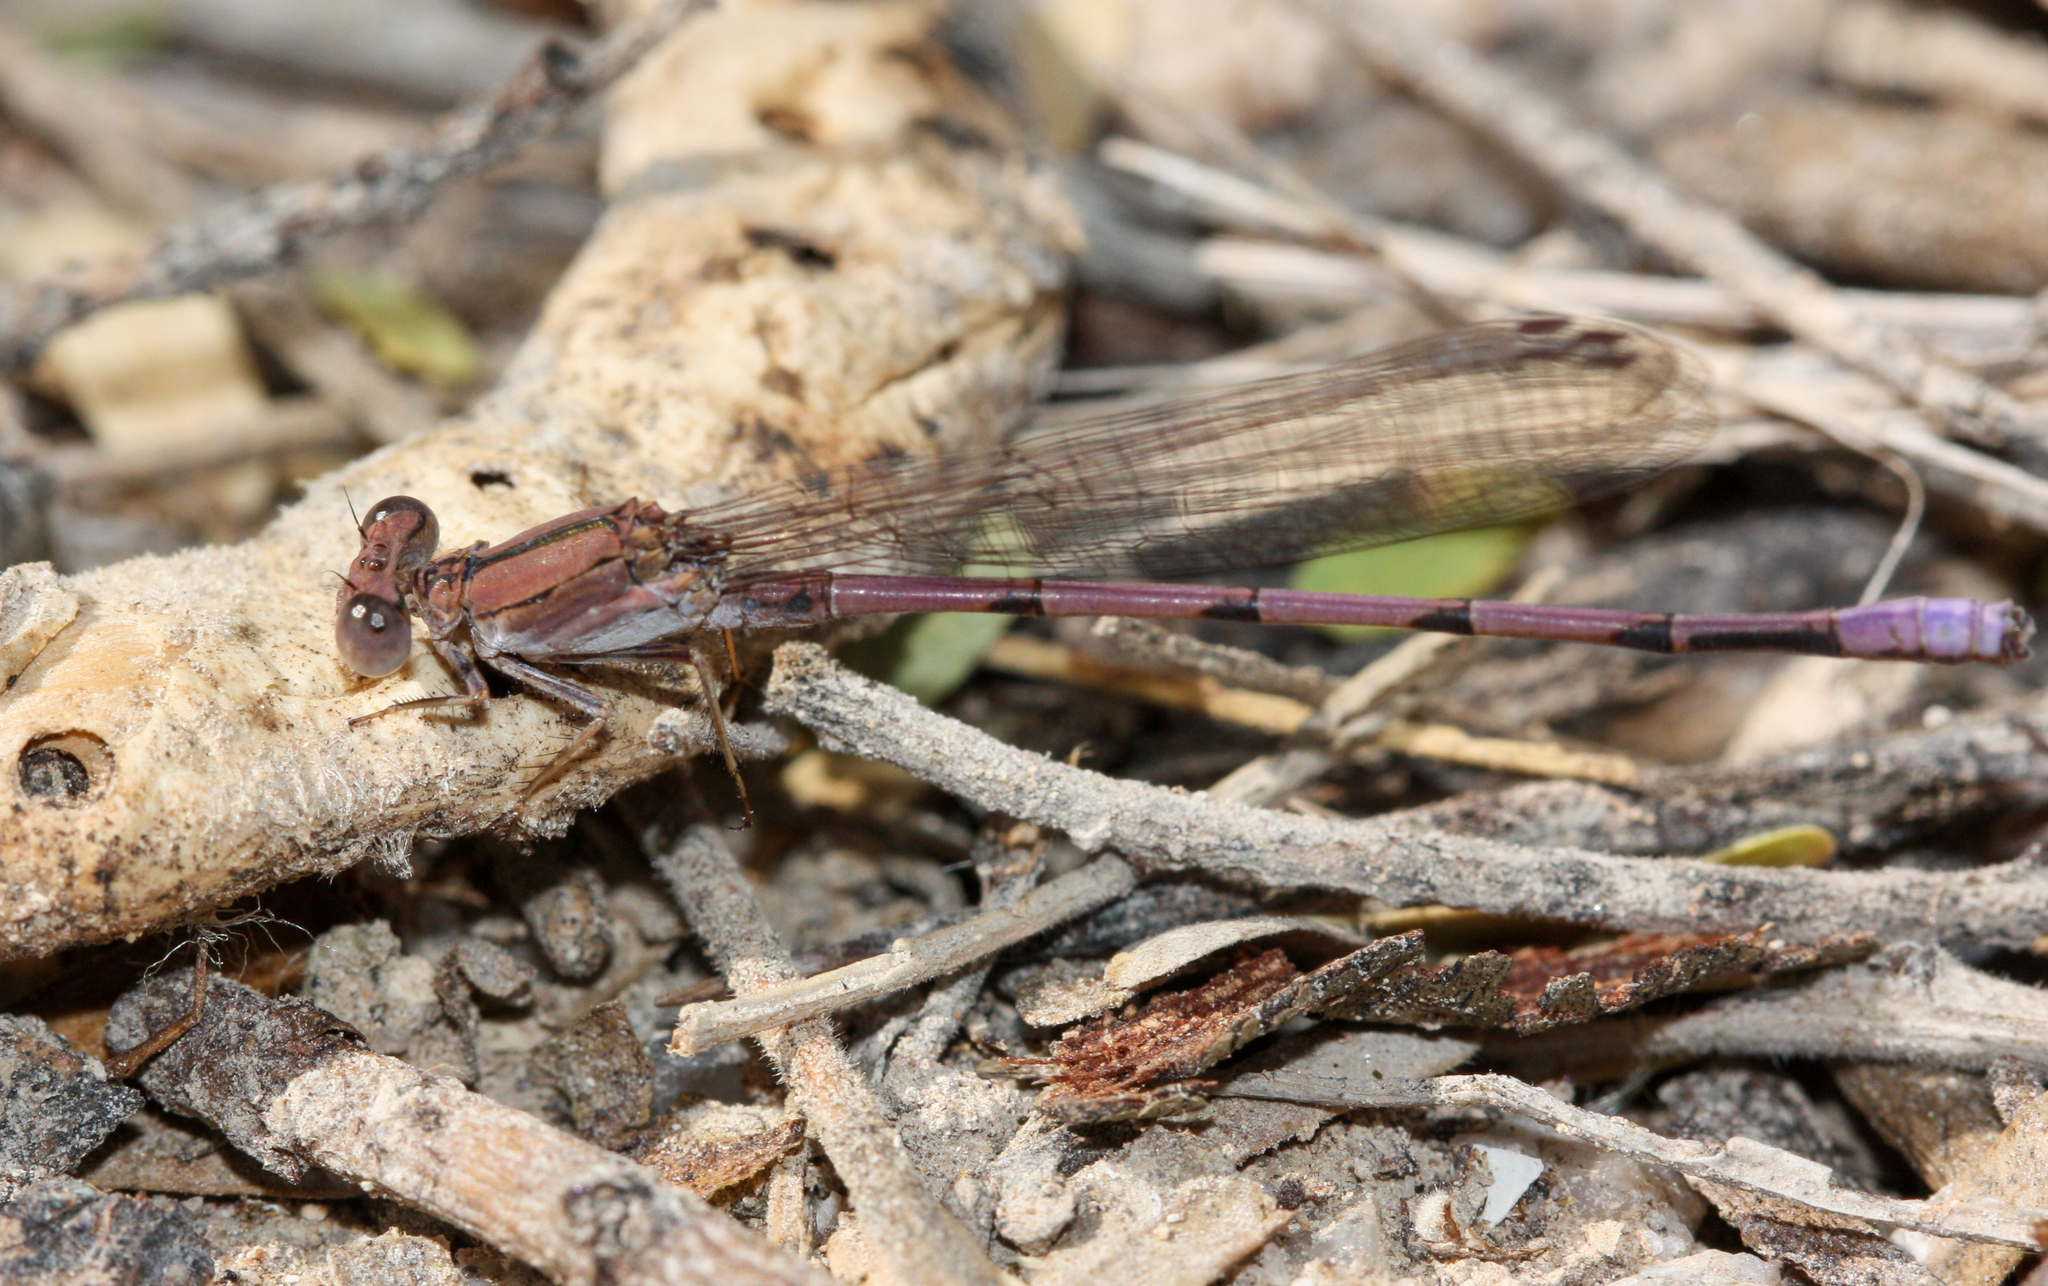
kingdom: Animalia
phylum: Arthropoda
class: Insecta
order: Odonata
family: Coenagrionidae
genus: Argia
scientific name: Argia pallens
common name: Amethyst dancer
